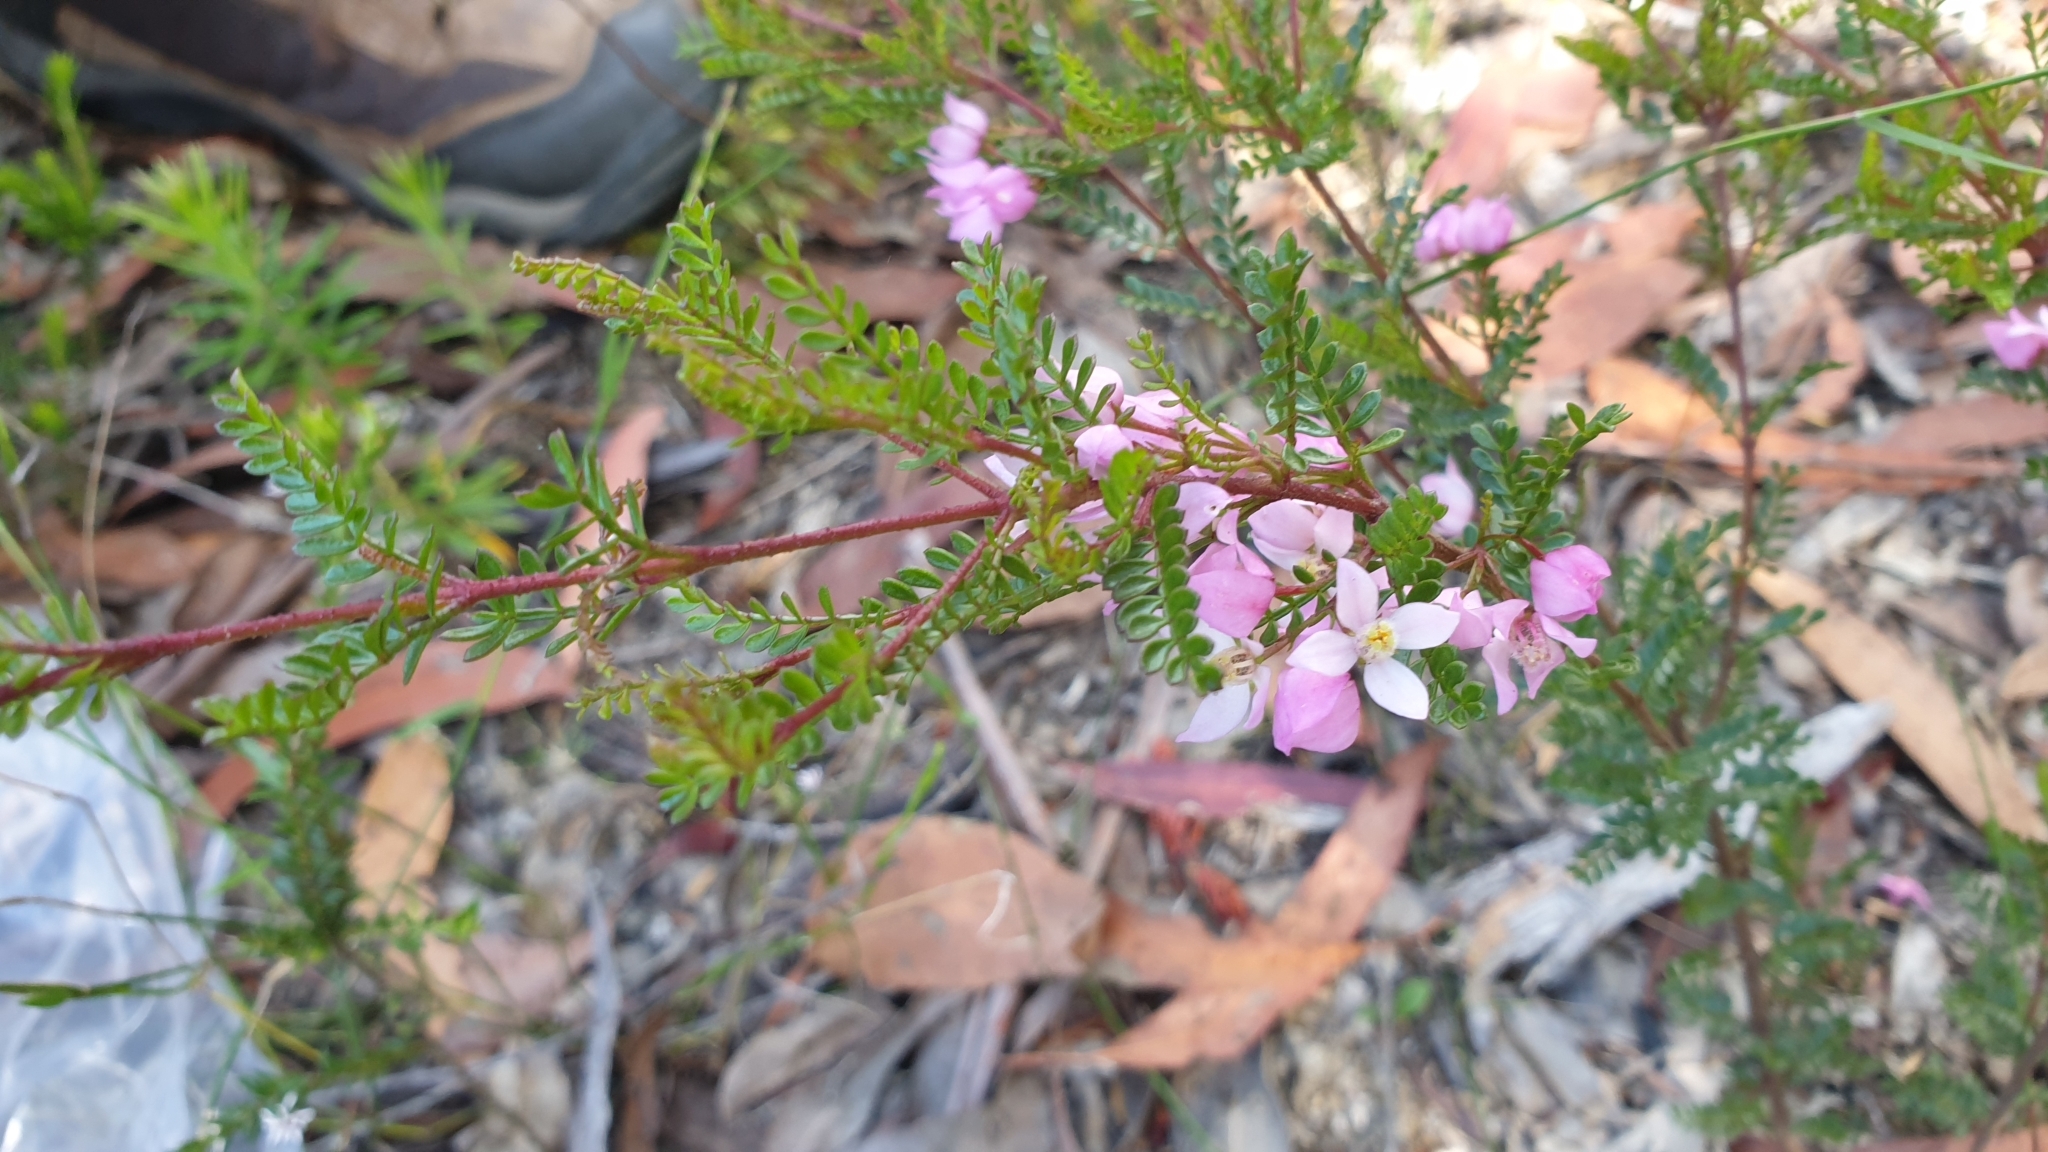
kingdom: Plantae
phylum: Tracheophyta
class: Magnoliopsida
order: Sapindales
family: Rutaceae
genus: Boronia
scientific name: Boronia microphylla
